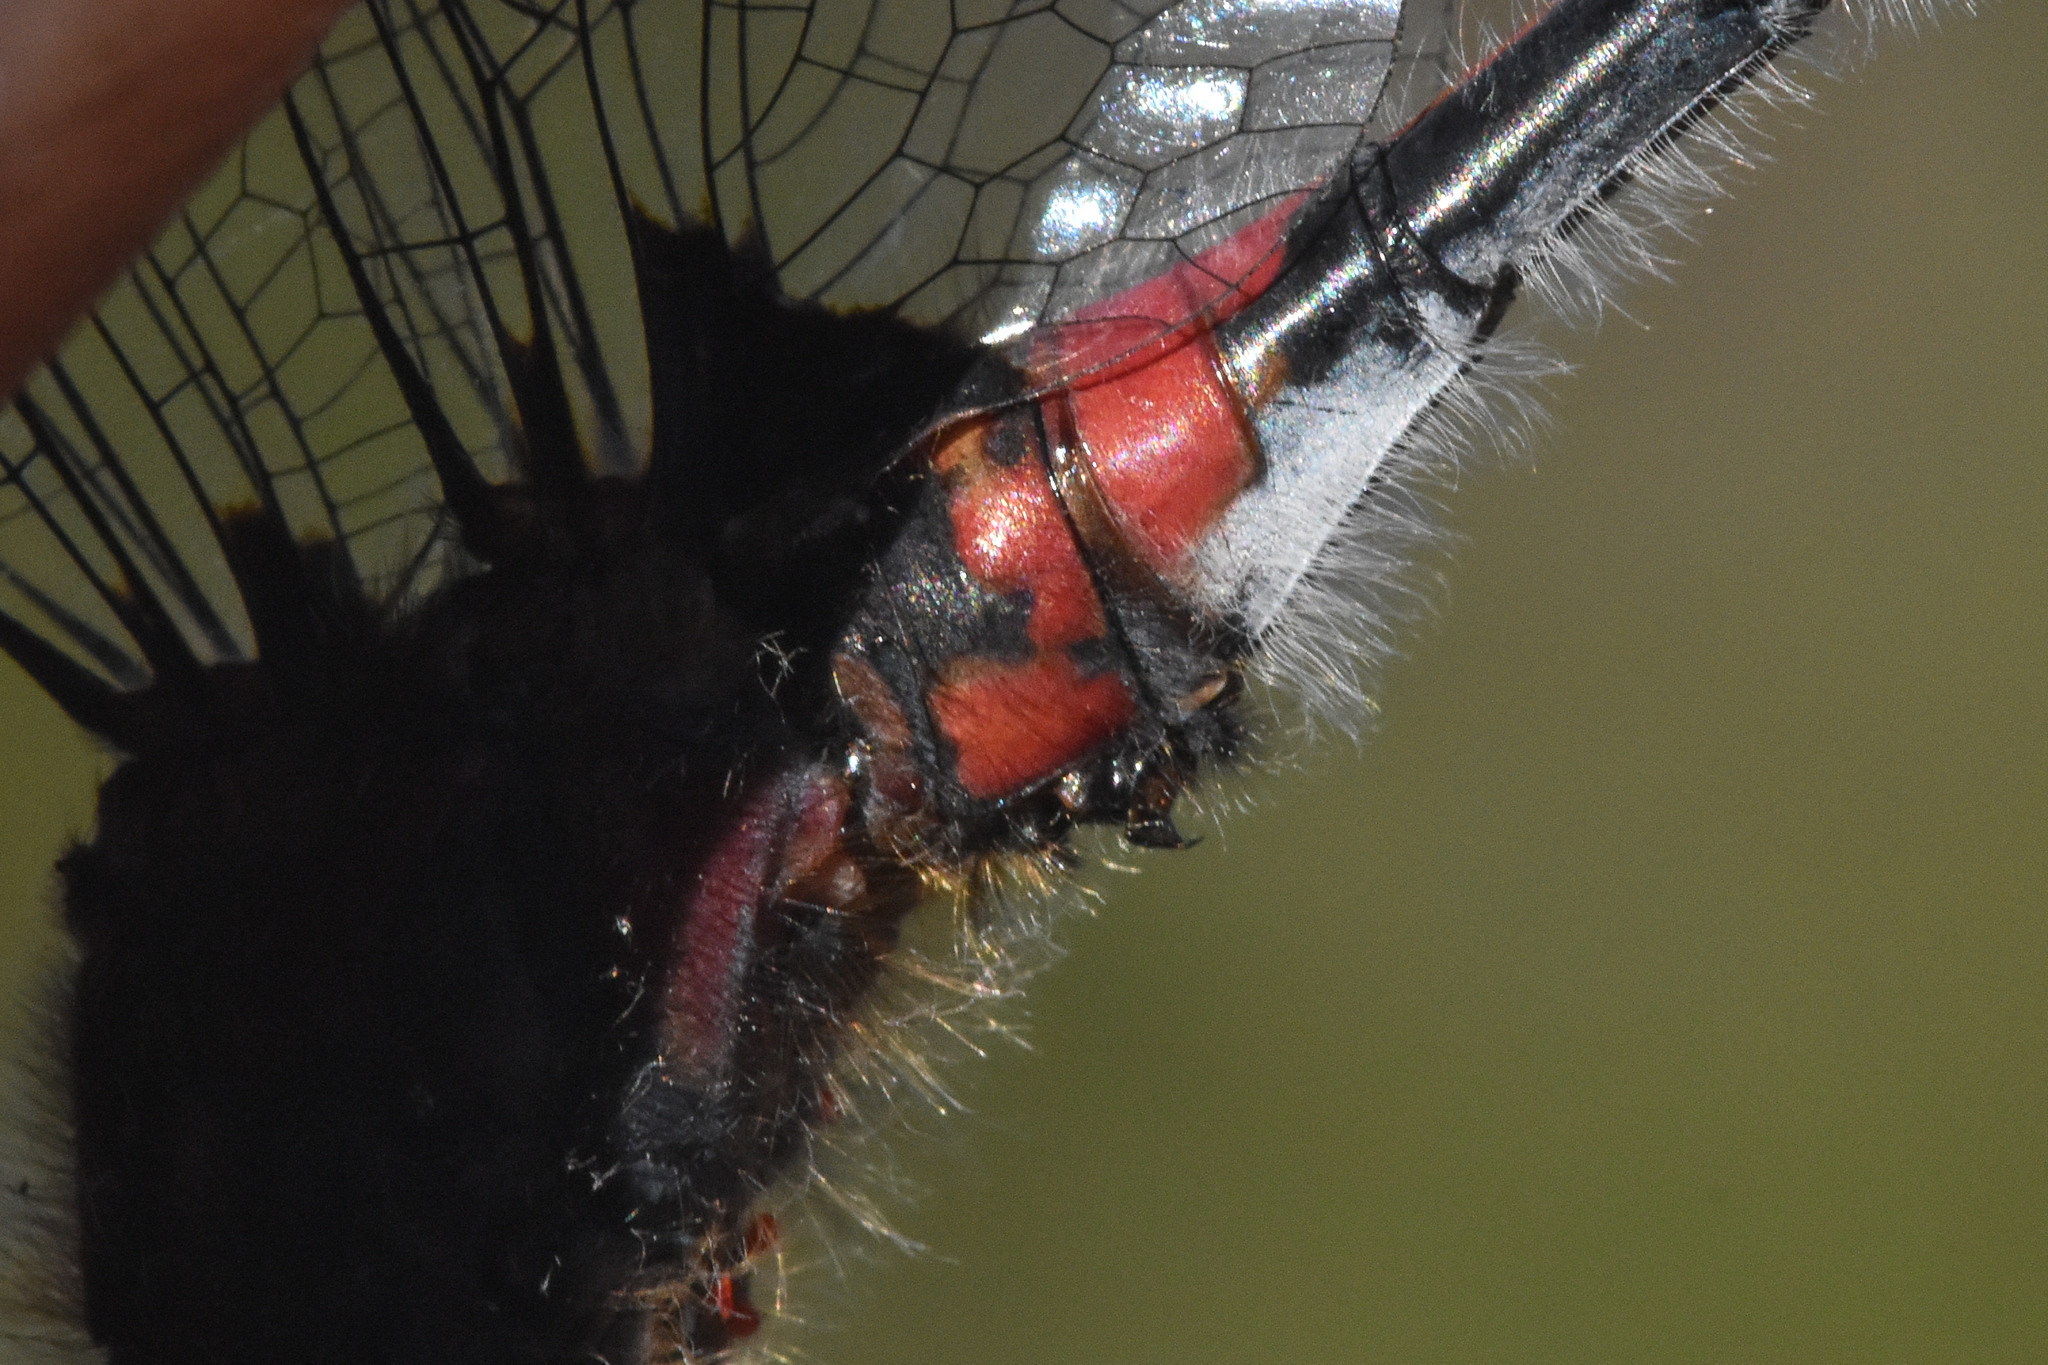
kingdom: Animalia
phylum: Arthropoda
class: Insecta
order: Odonata
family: Libellulidae
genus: Leucorrhinia
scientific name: Leucorrhinia proxima
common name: Belted whiteface
